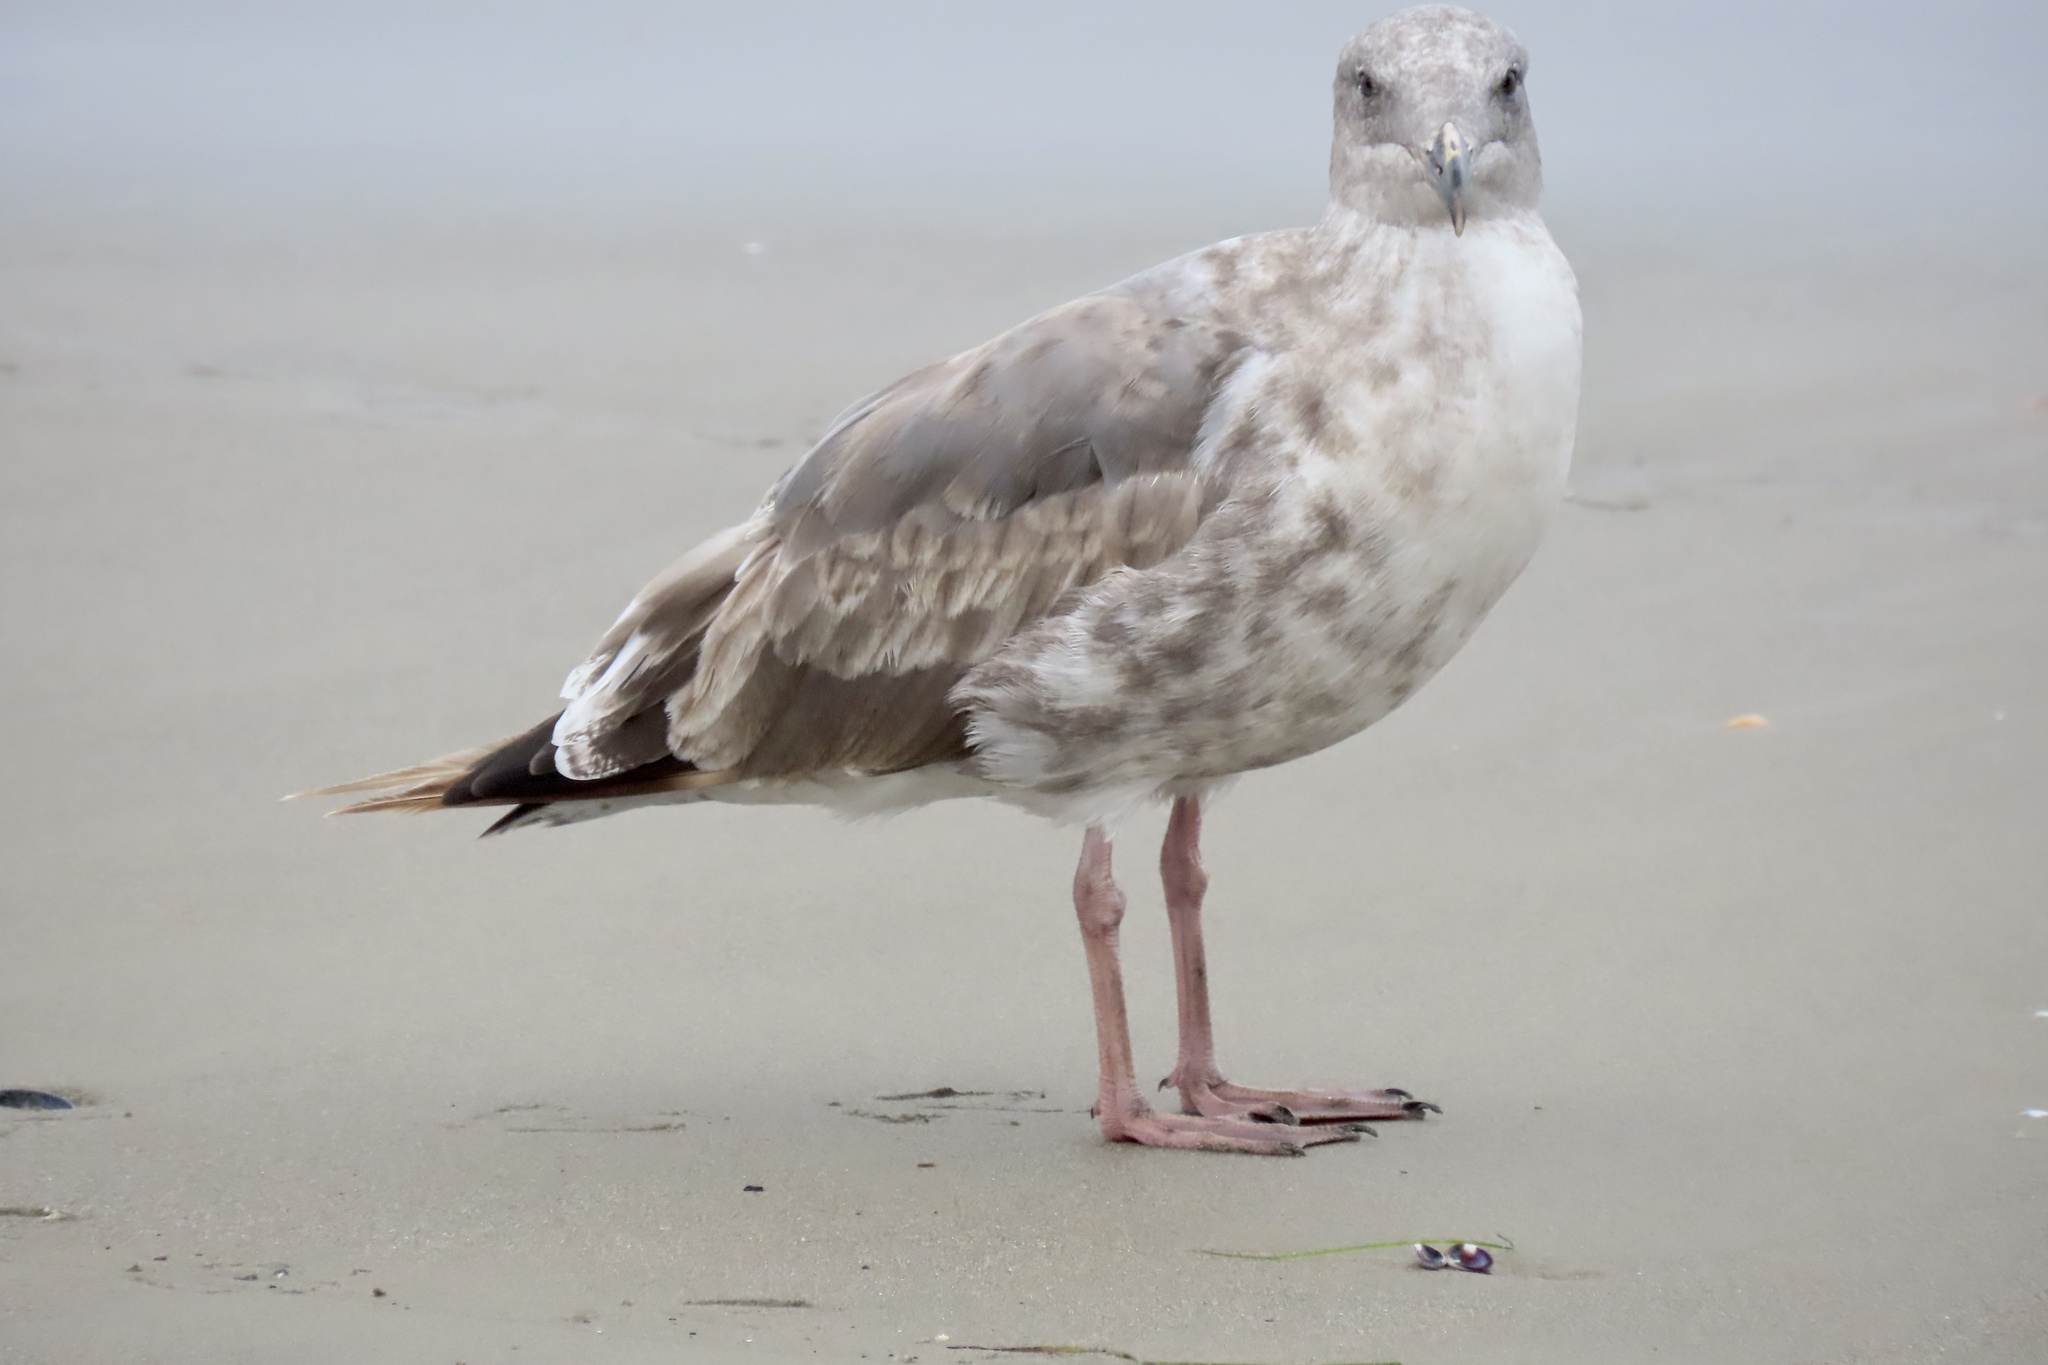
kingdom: Animalia
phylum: Chordata
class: Aves
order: Charadriiformes
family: Laridae
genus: Larus
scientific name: Larus occidentalis
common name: Western gull
